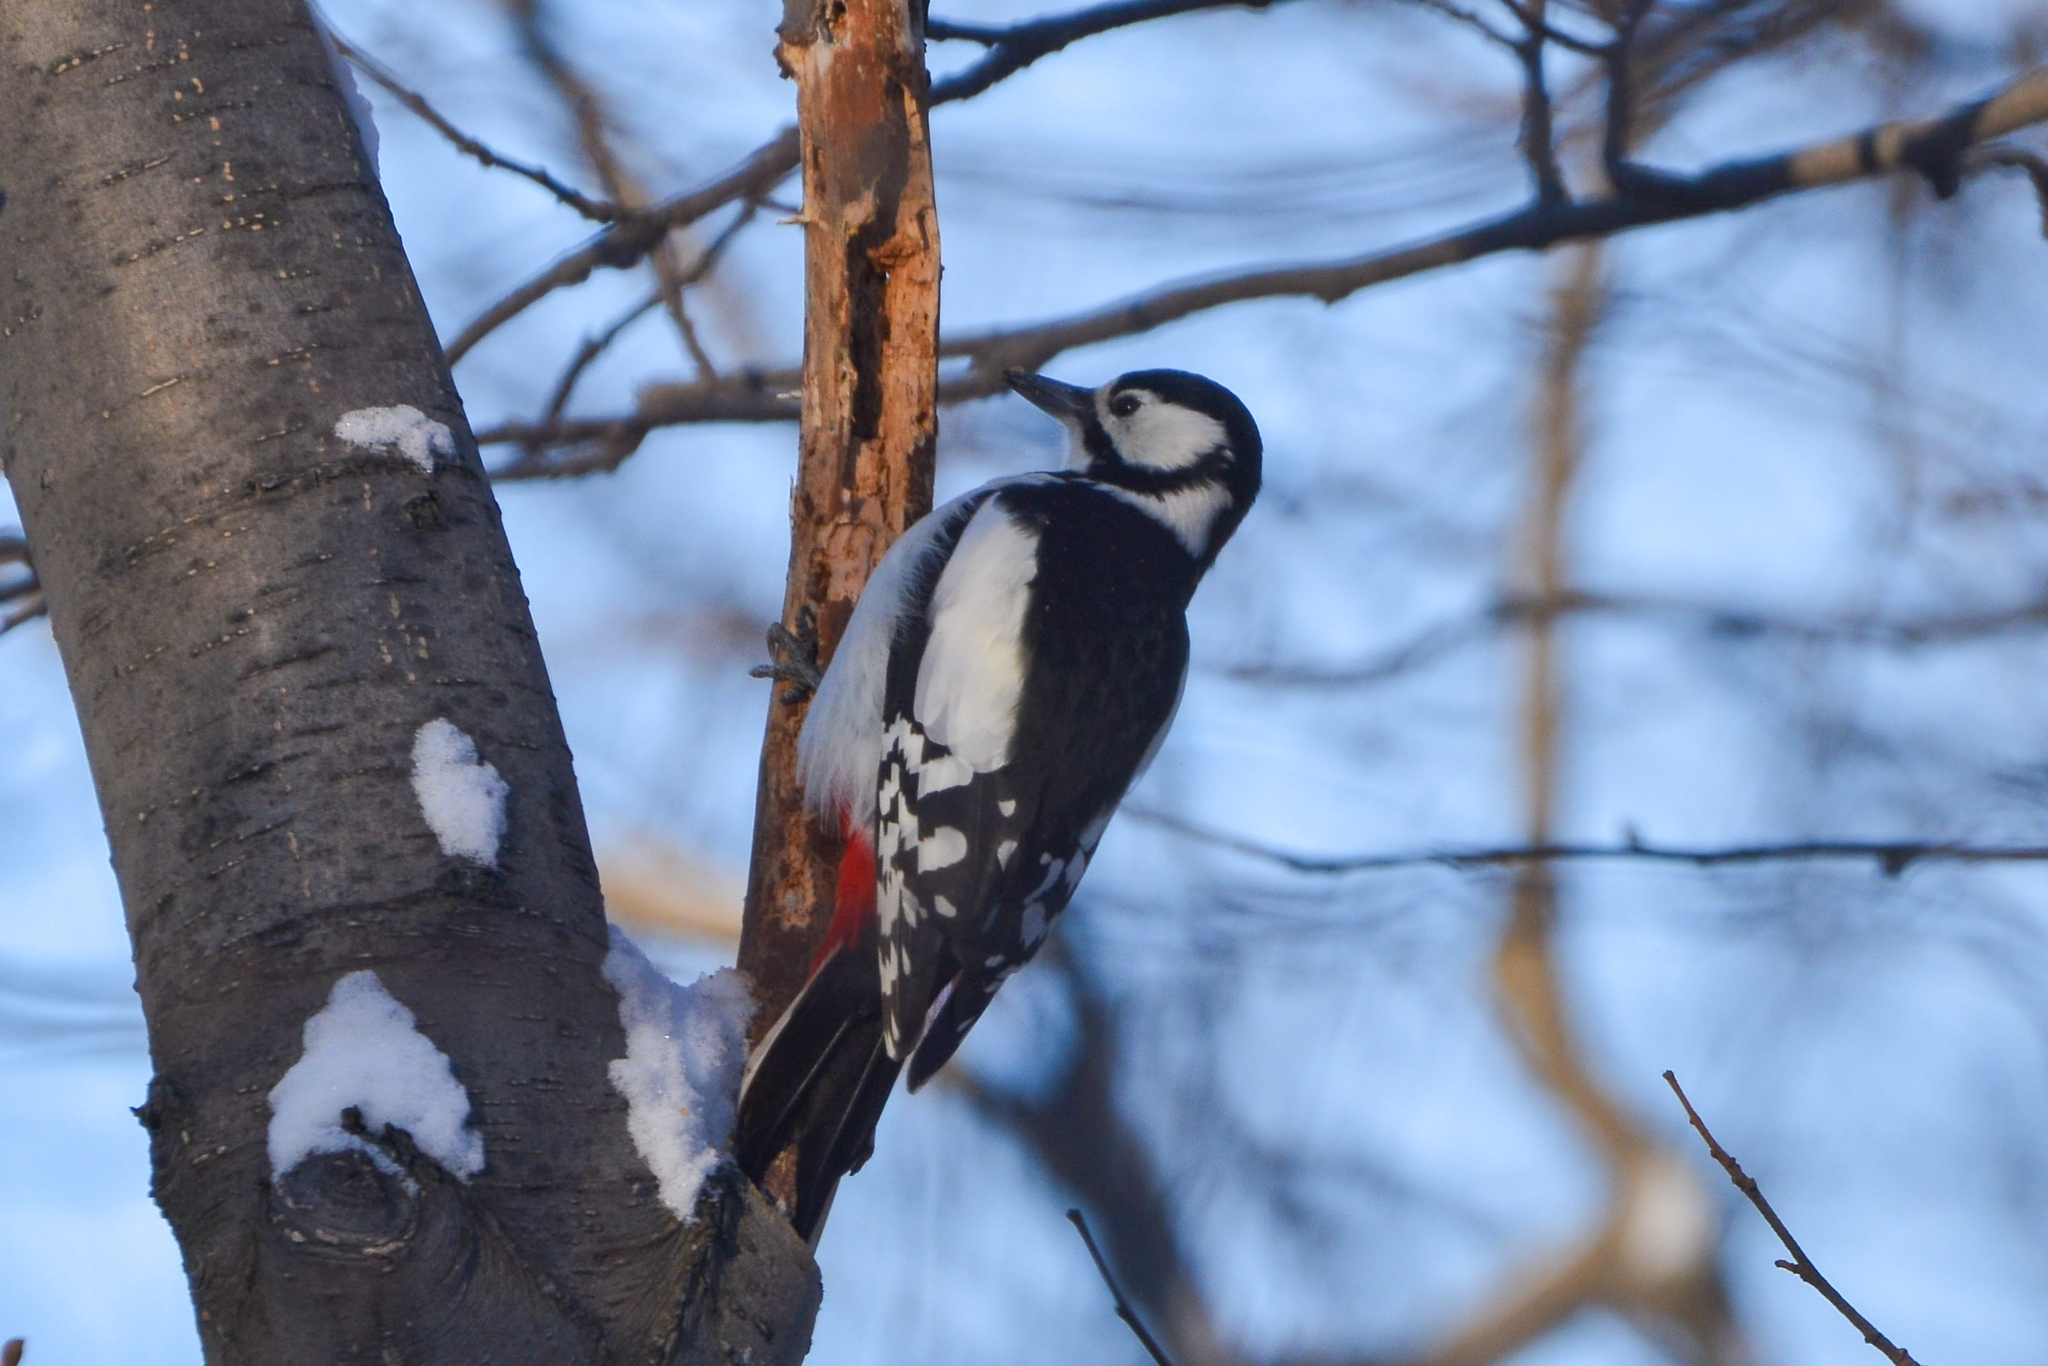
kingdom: Animalia
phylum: Chordata
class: Aves
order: Piciformes
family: Picidae
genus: Dendrocopos
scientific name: Dendrocopos major
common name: Great spotted woodpecker
